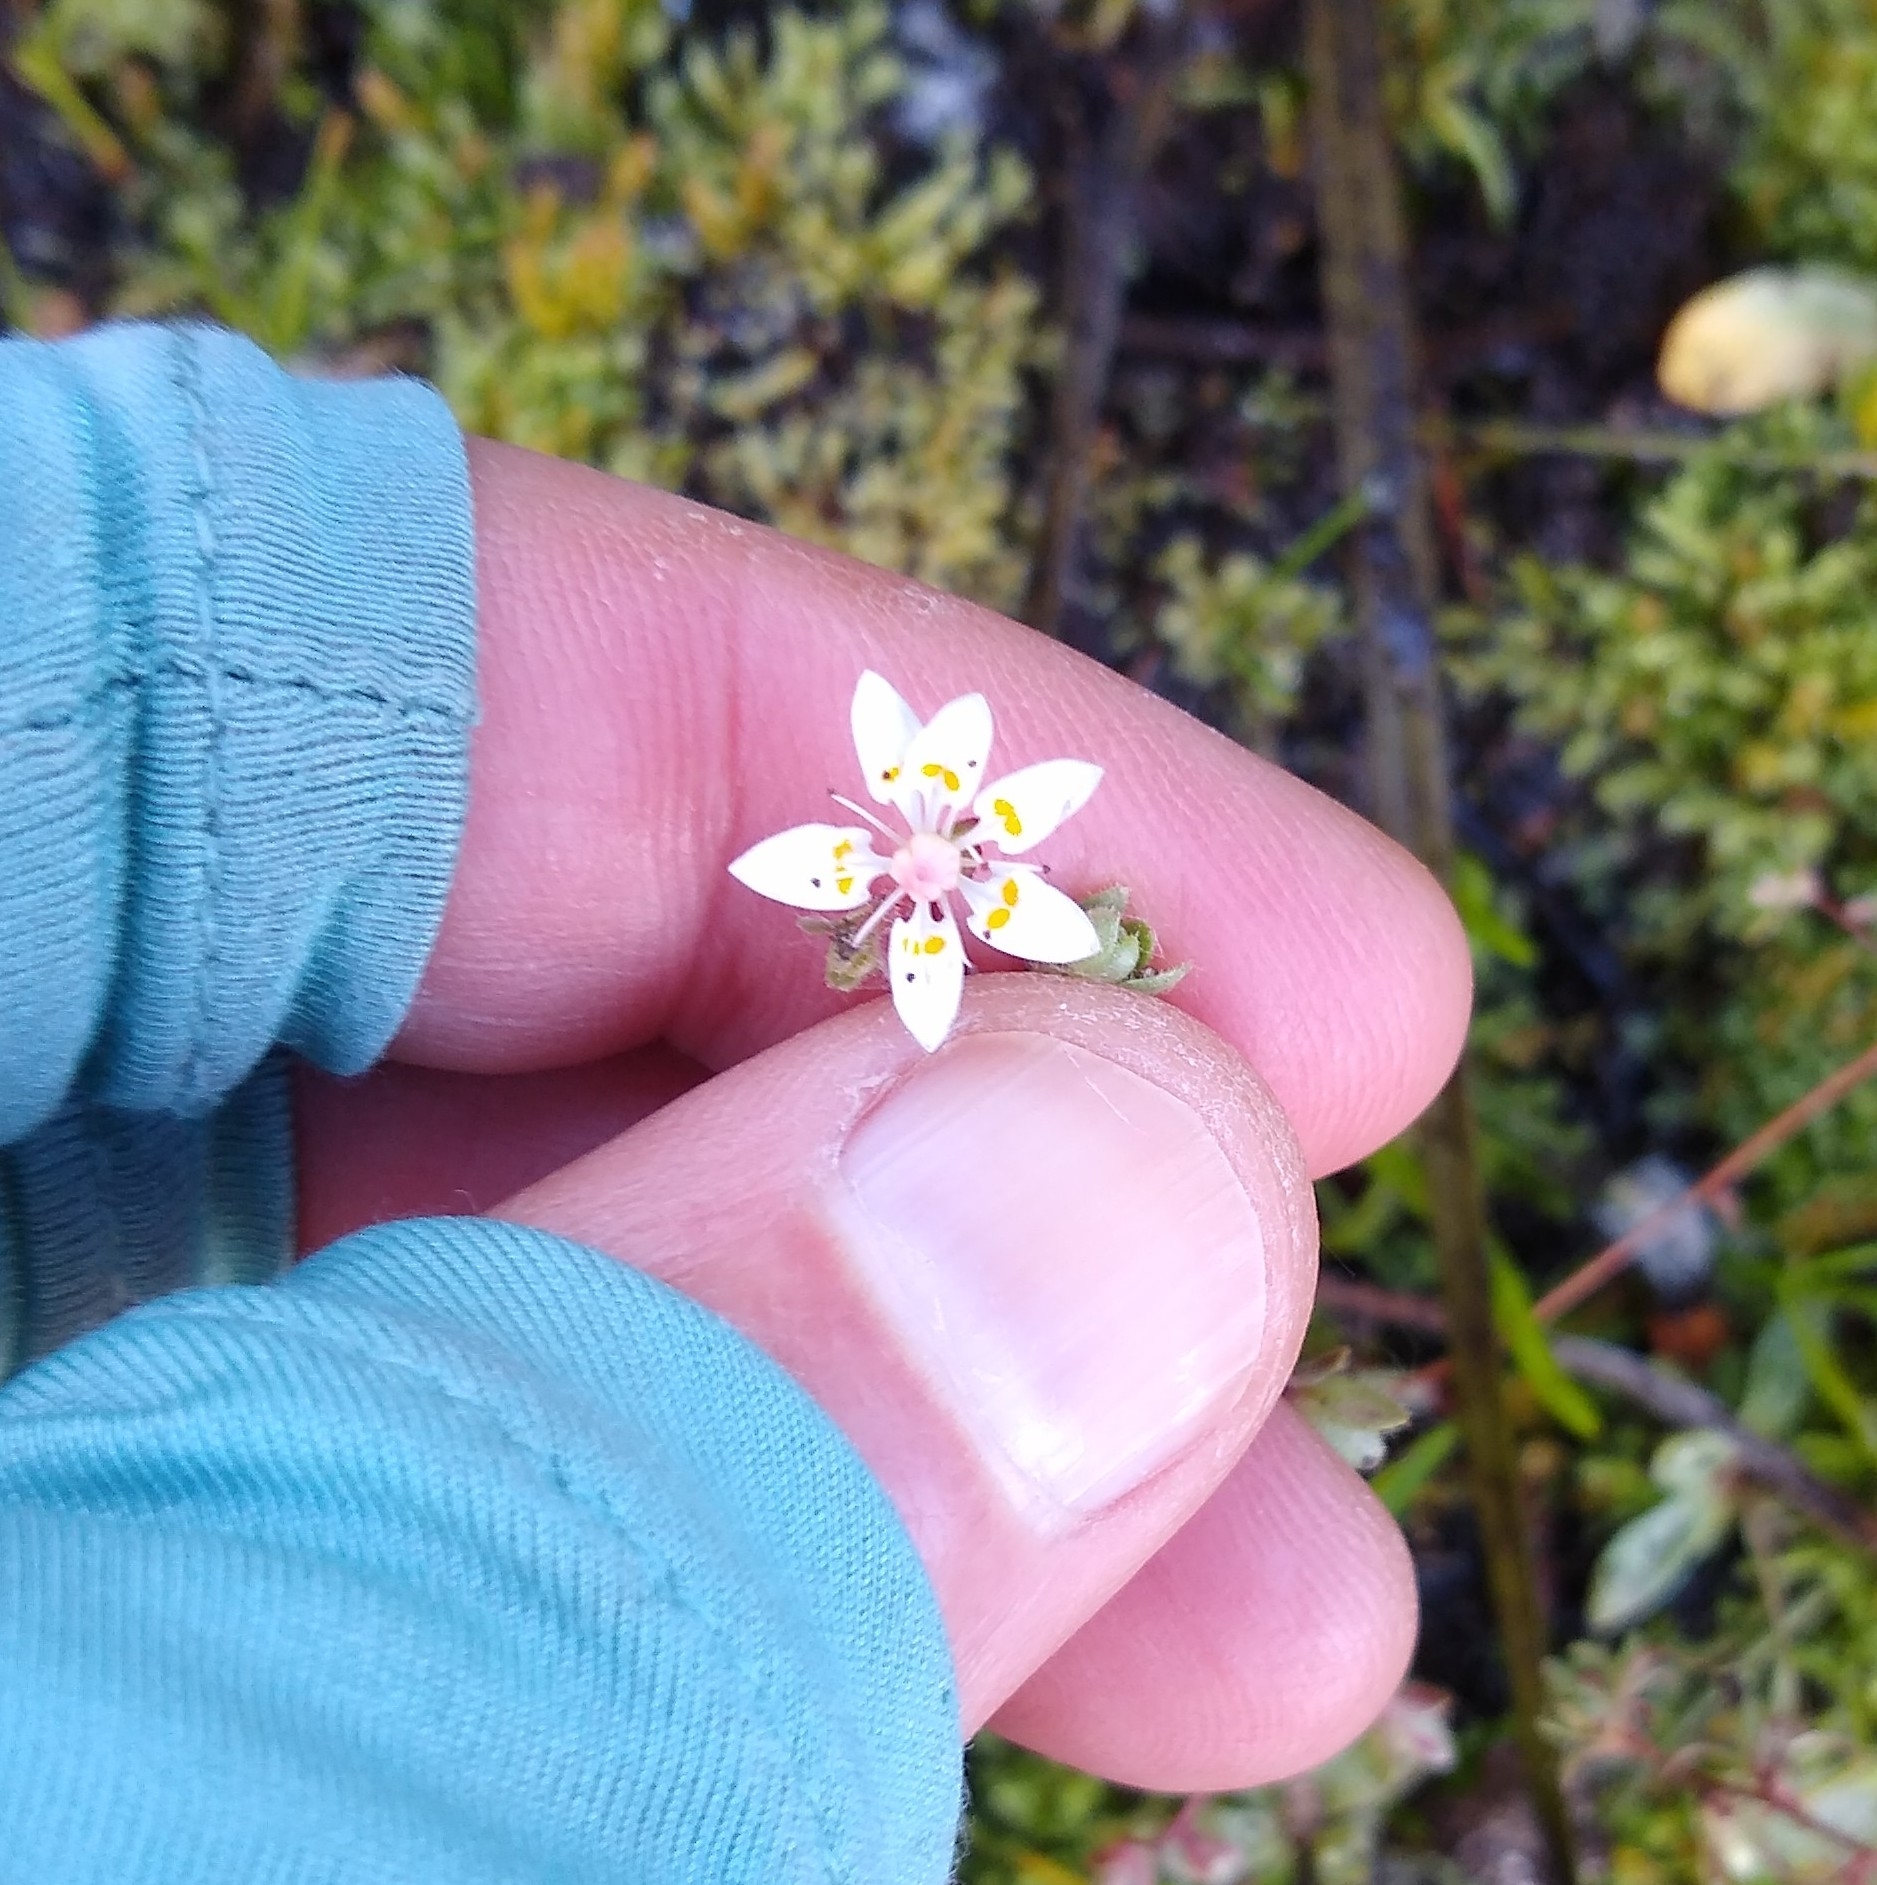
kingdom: Plantae
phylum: Tracheophyta
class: Magnoliopsida
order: Saxifragales
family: Saxifragaceae
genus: Micranthes
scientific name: Micranthes bryophora
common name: Bud saxifrage
